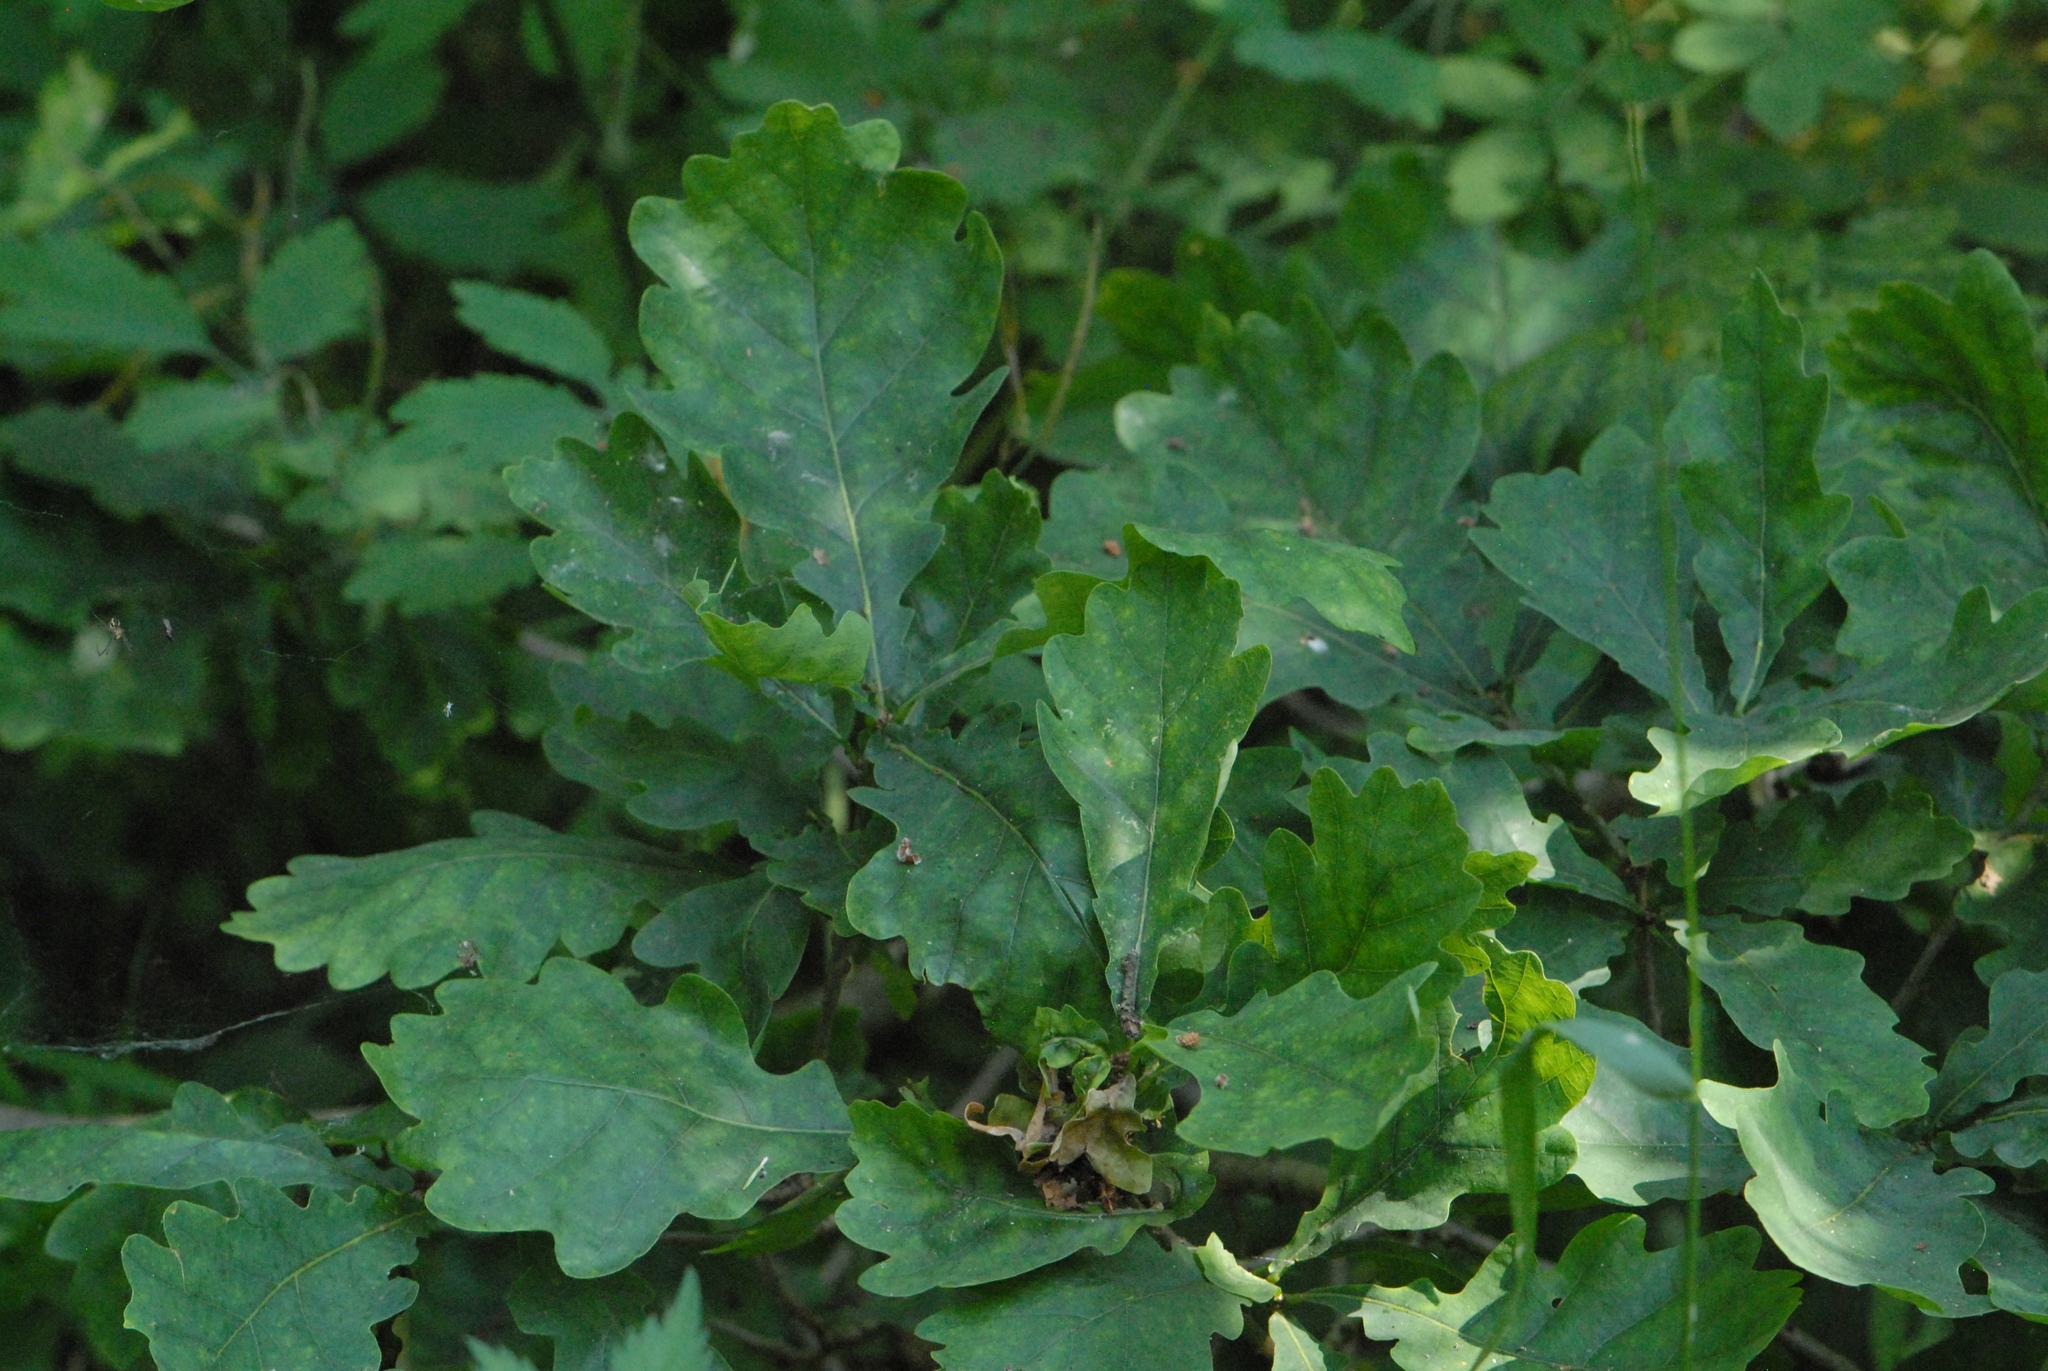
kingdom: Plantae
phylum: Tracheophyta
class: Magnoliopsida
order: Fagales
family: Fagaceae
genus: Quercus
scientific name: Quercus robur
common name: Pedunculate oak
